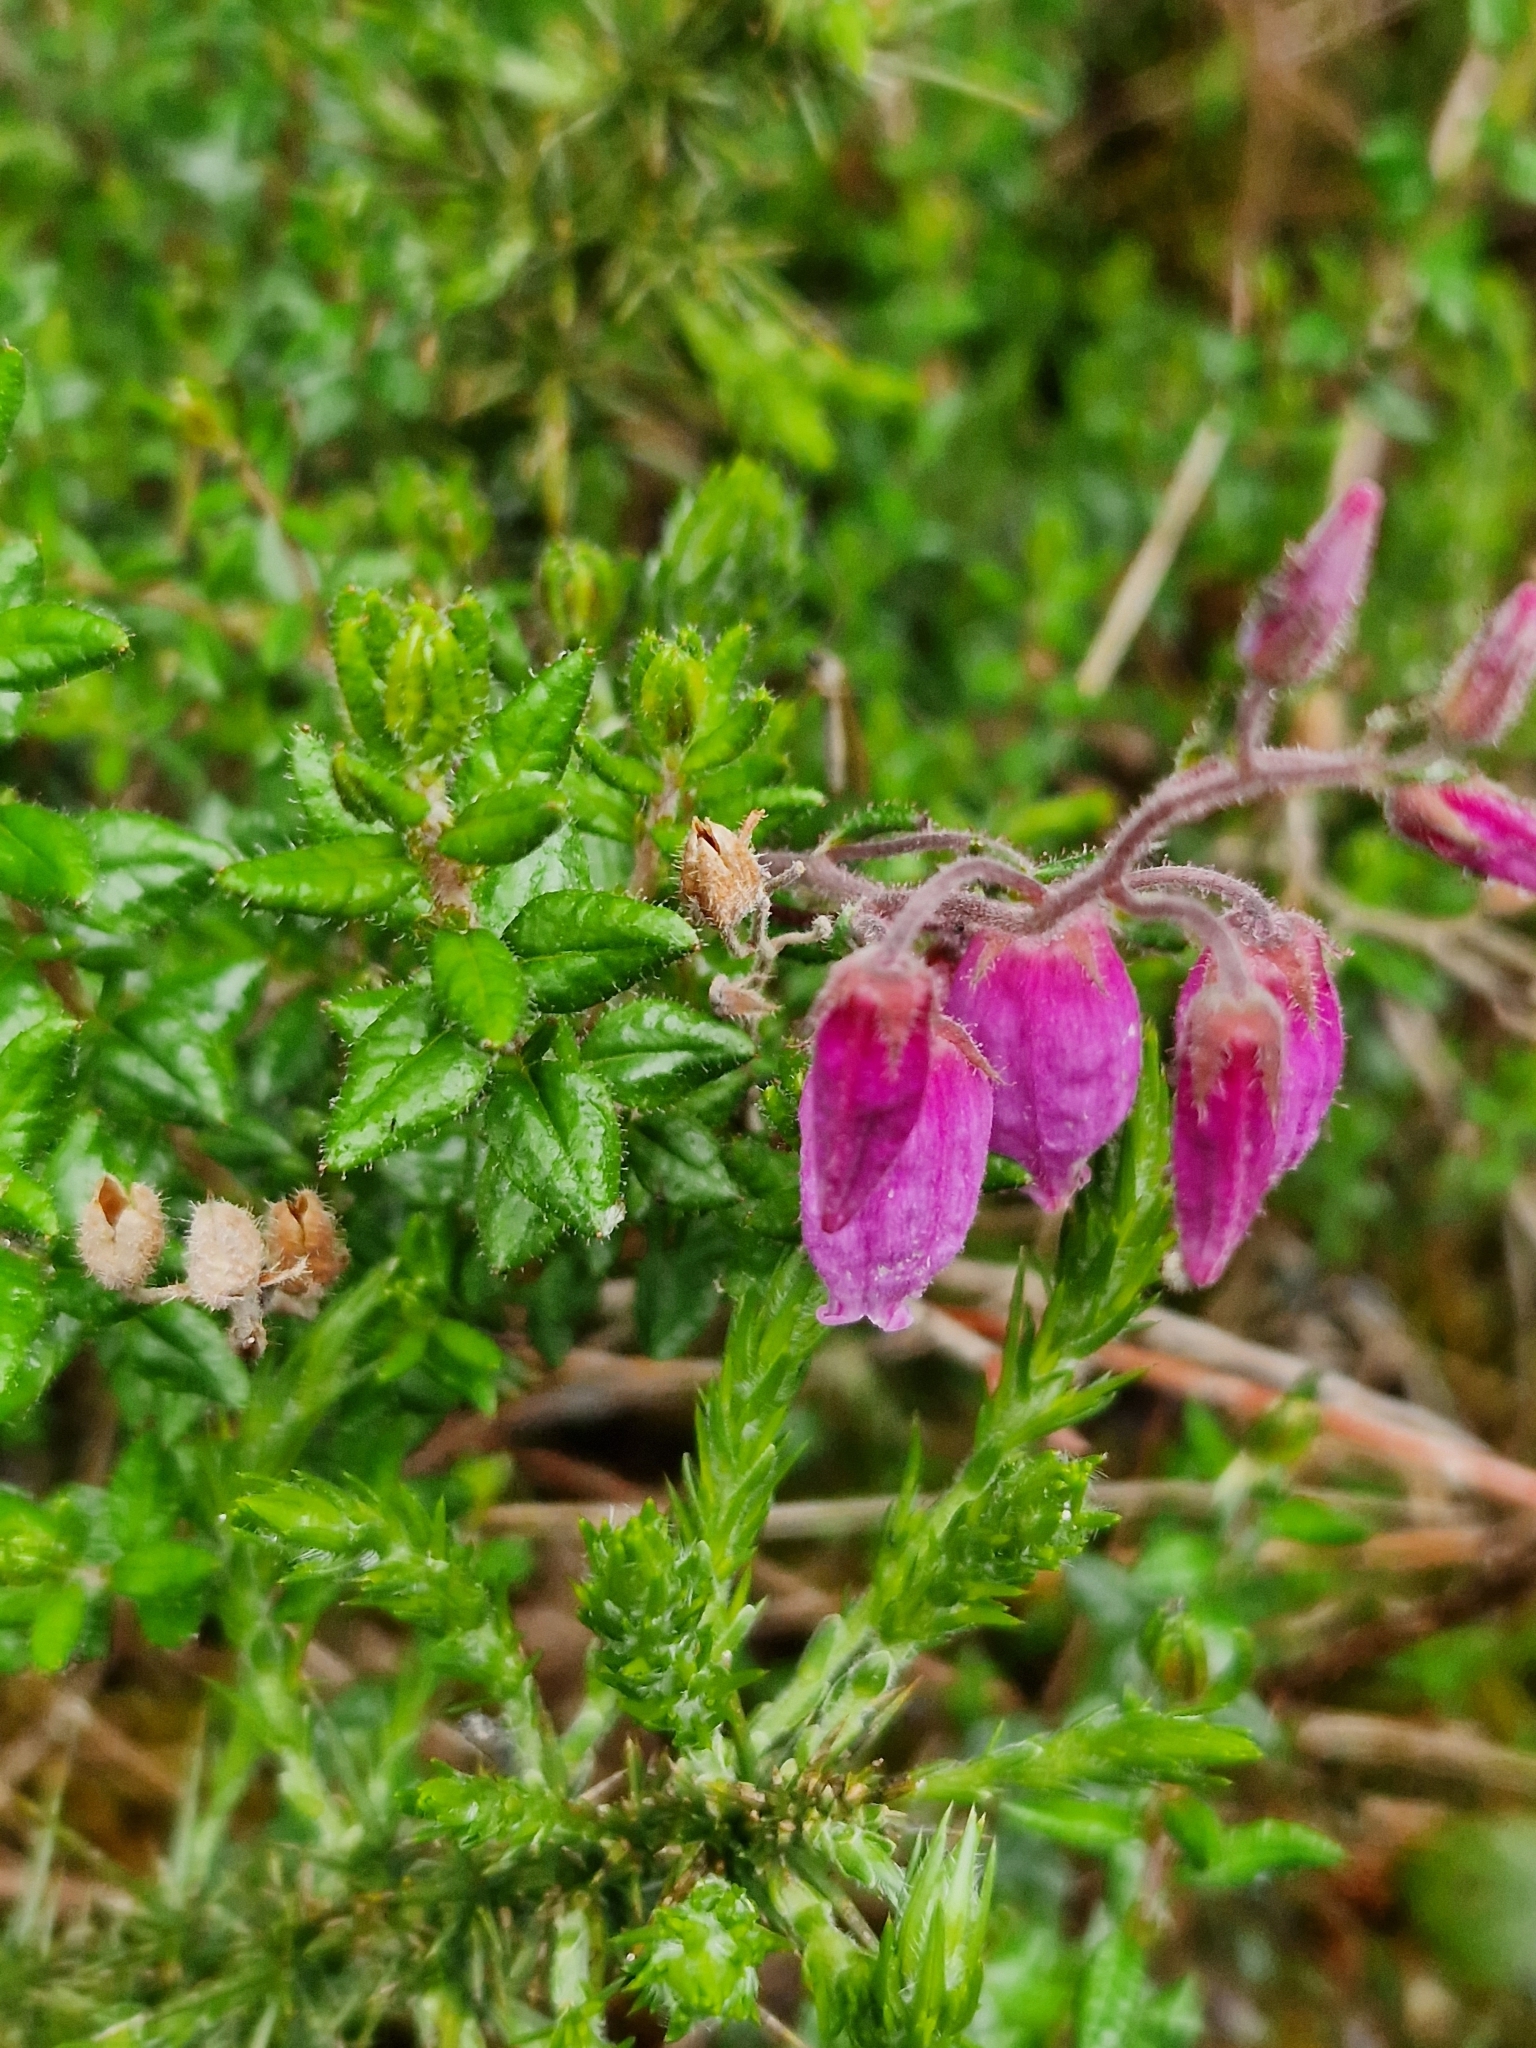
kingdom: Plantae
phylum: Tracheophyta
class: Magnoliopsida
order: Ericales
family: Ericaceae
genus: Daboecia
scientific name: Daboecia cantabrica
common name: St. dabeoc's-heath
